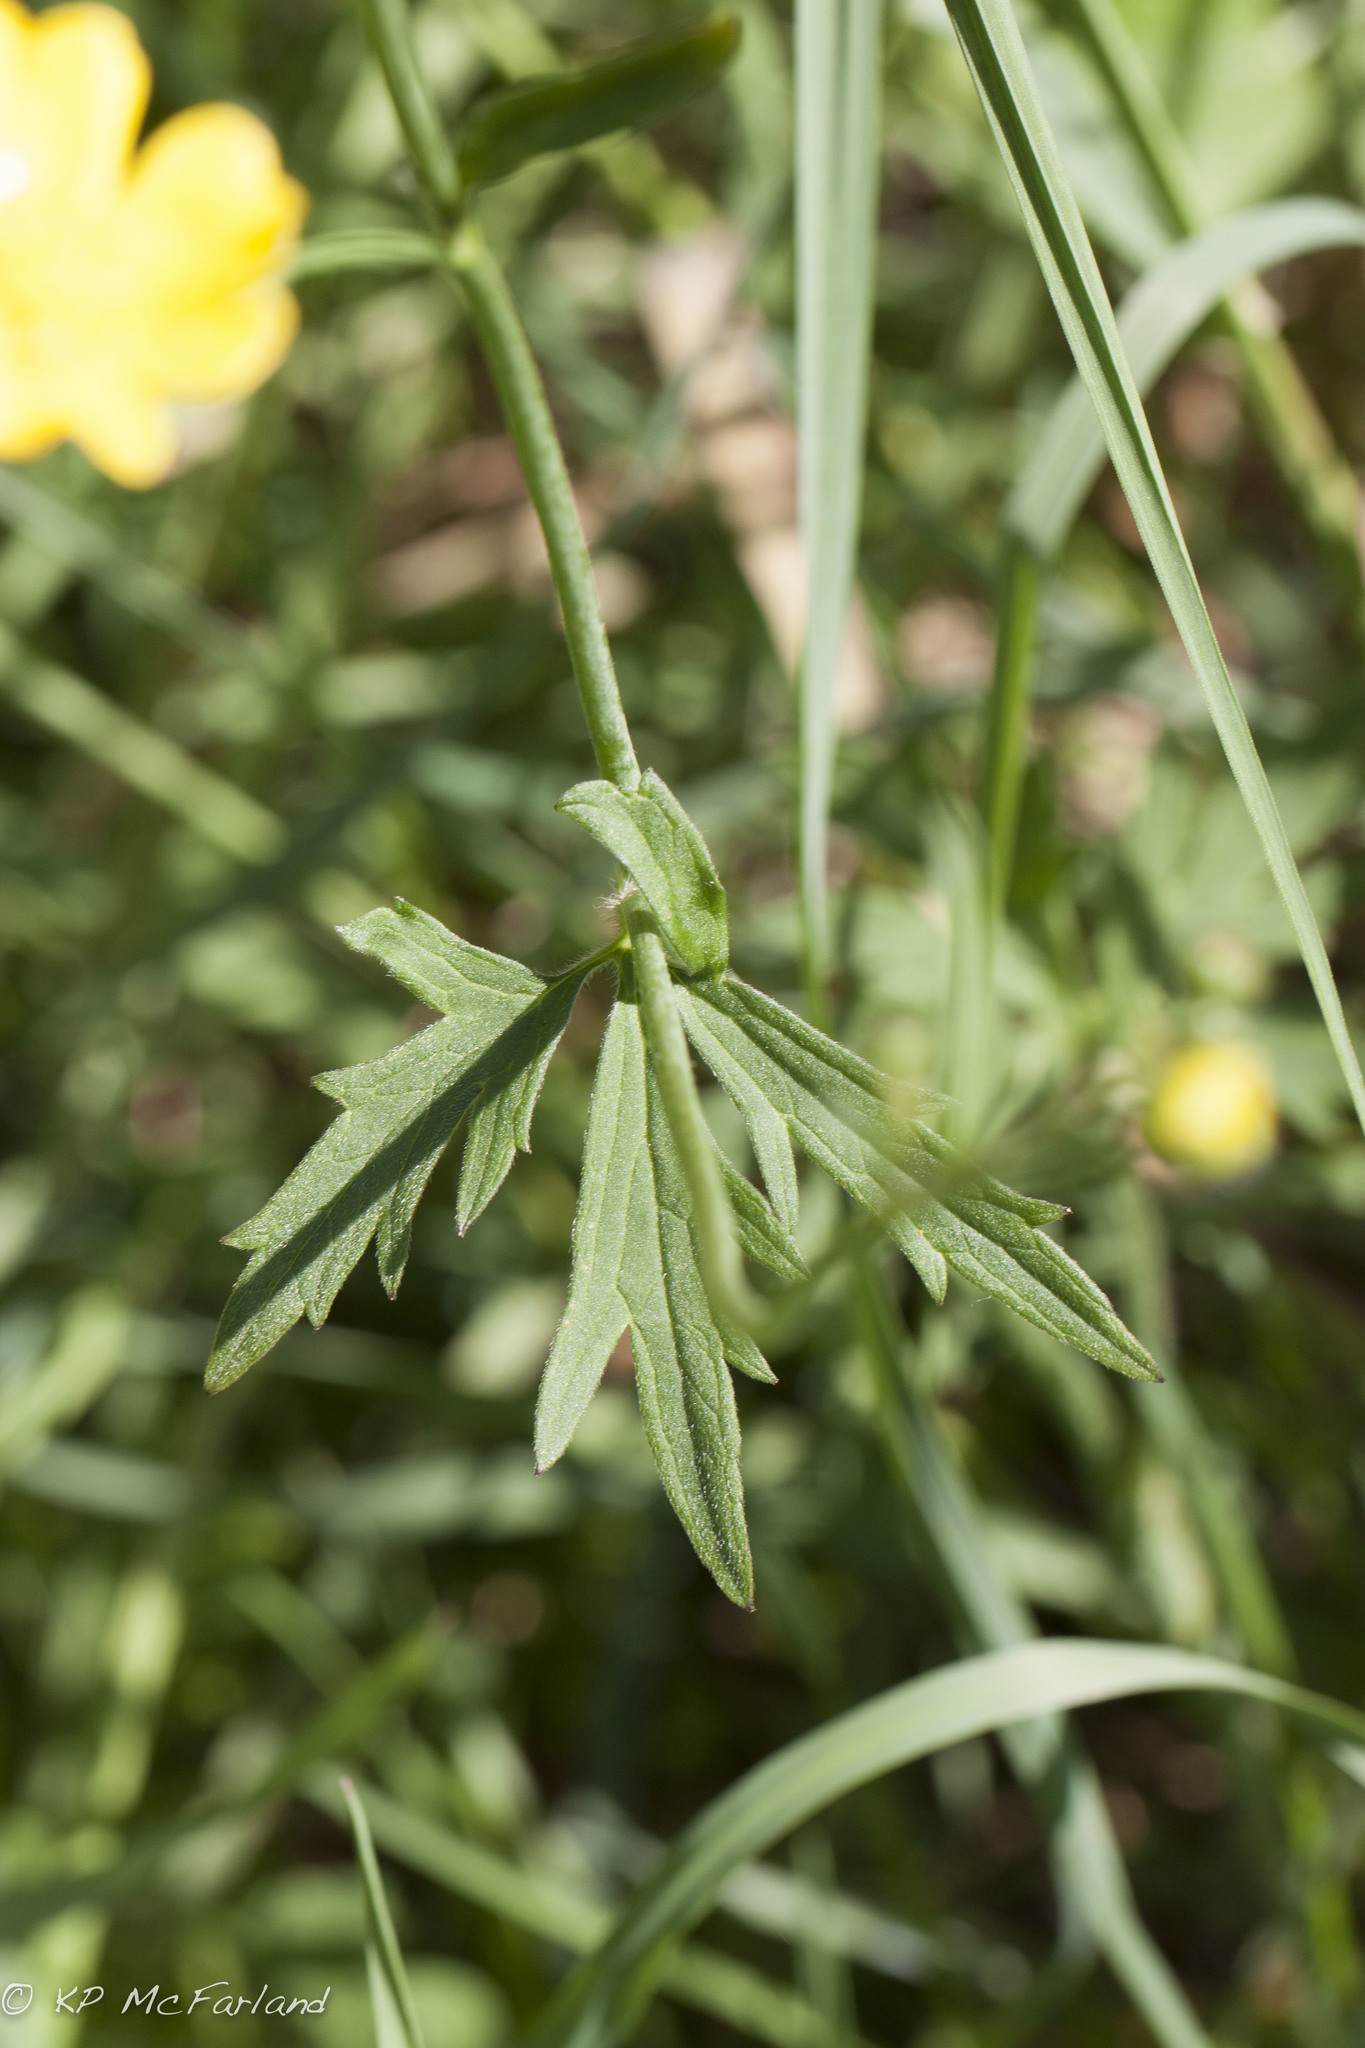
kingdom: Plantae
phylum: Tracheophyta
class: Magnoliopsida
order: Ranunculales
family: Ranunculaceae
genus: Ranunculus
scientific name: Ranunculus acris
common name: Meadow buttercup
